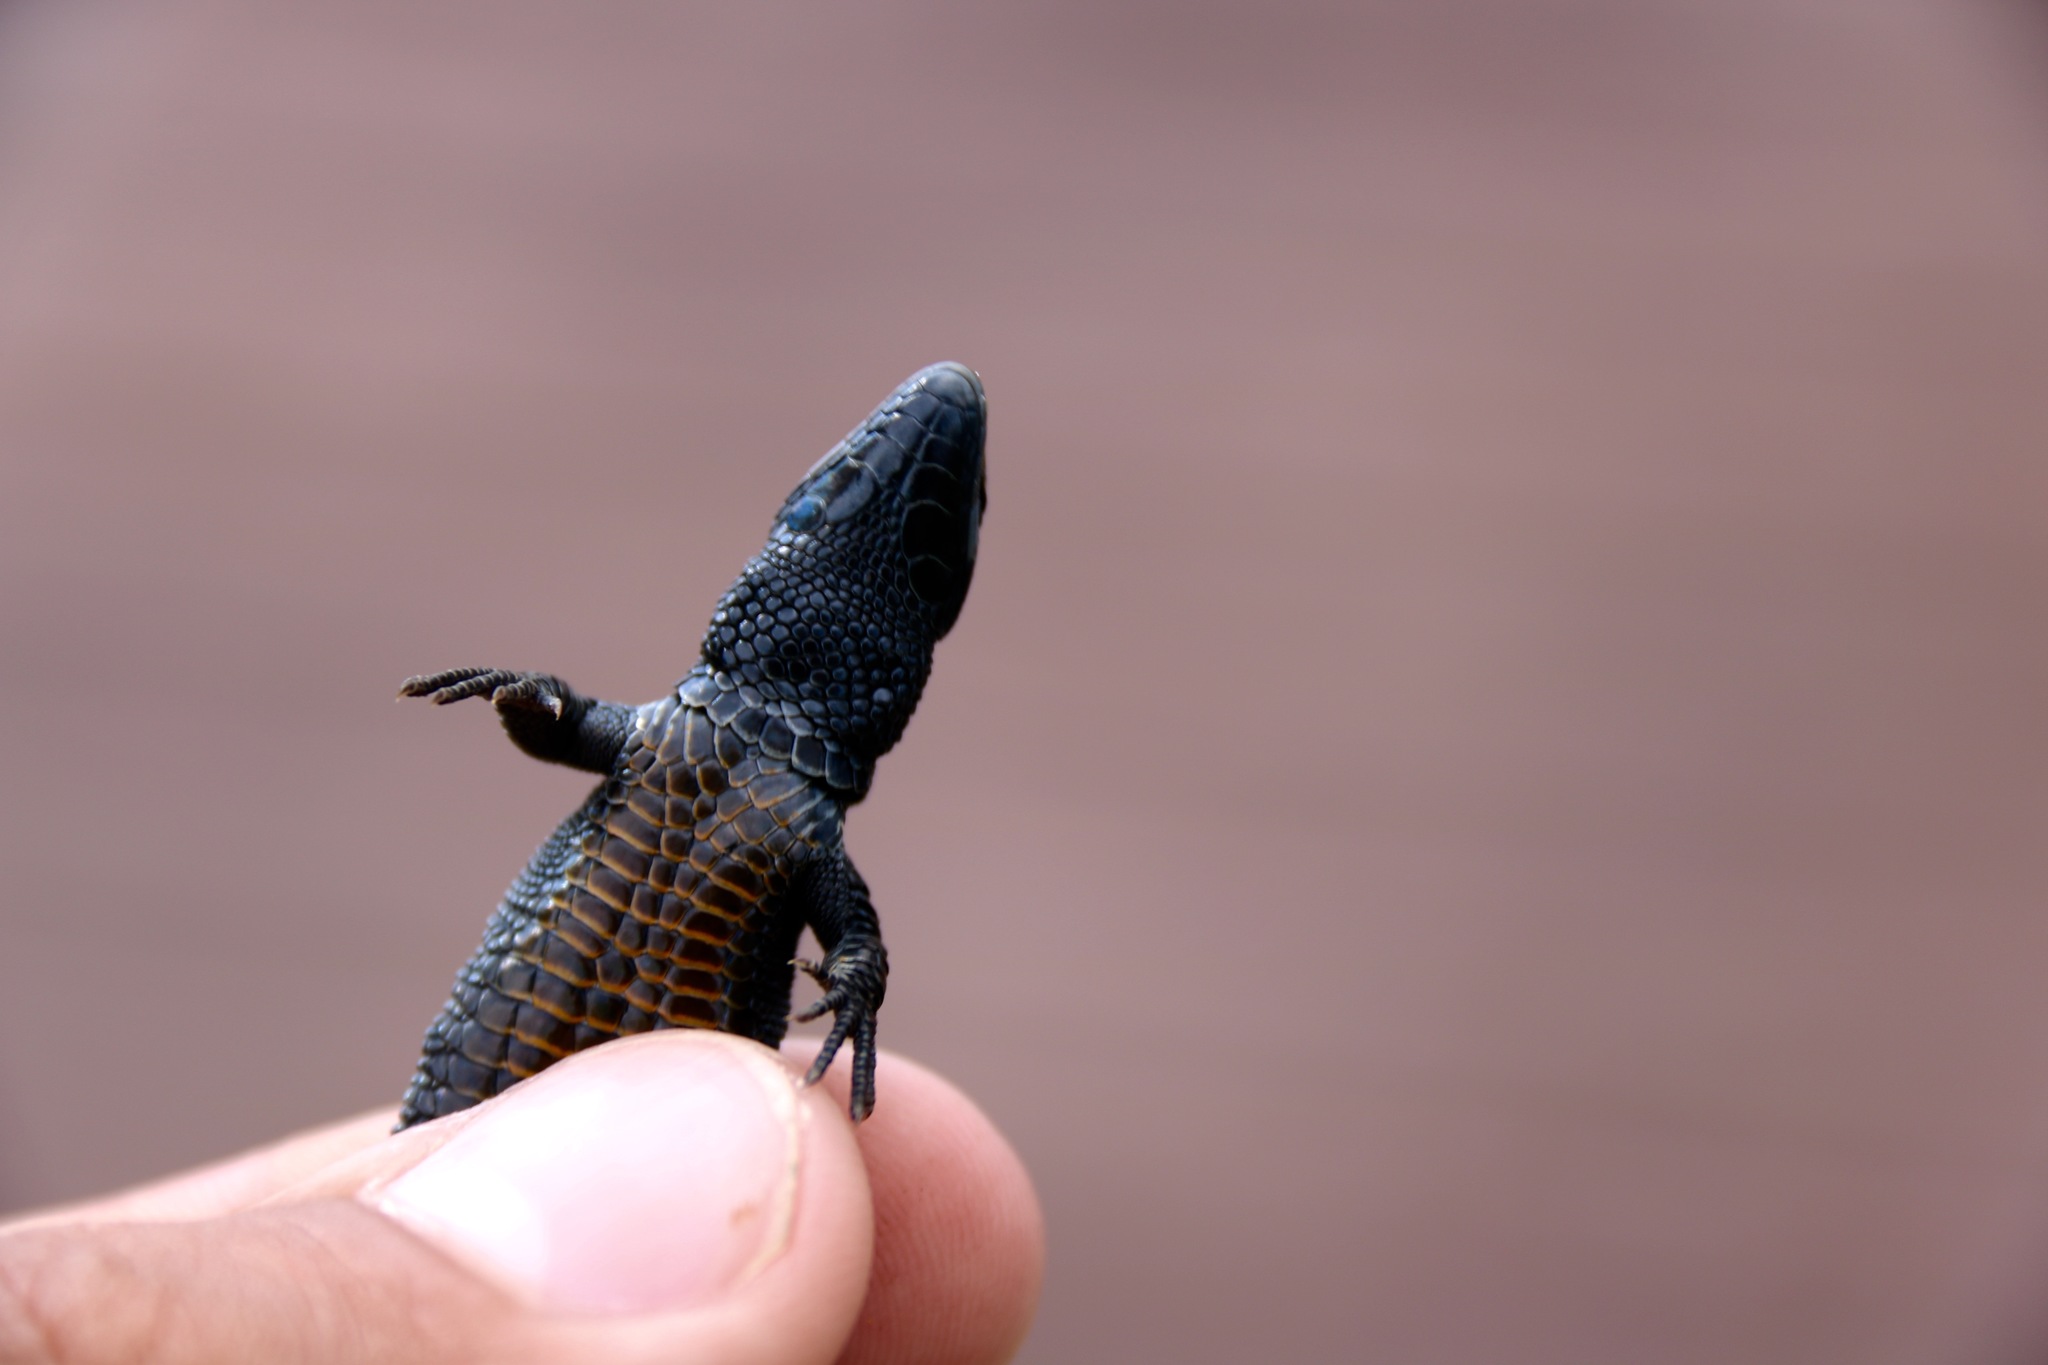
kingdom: Animalia
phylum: Chordata
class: Squamata
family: Lacertidae
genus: Zootoca
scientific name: Zootoca vivipara
